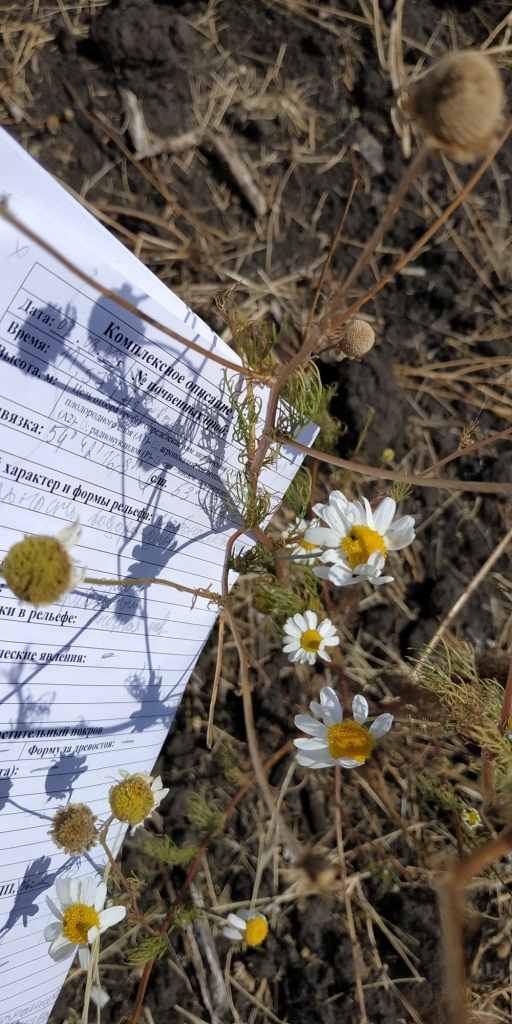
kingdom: Plantae
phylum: Tracheophyta
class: Magnoliopsida
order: Asterales
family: Asteraceae
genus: Tripleurospermum
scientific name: Tripleurospermum inodorum
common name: Scentless mayweed
